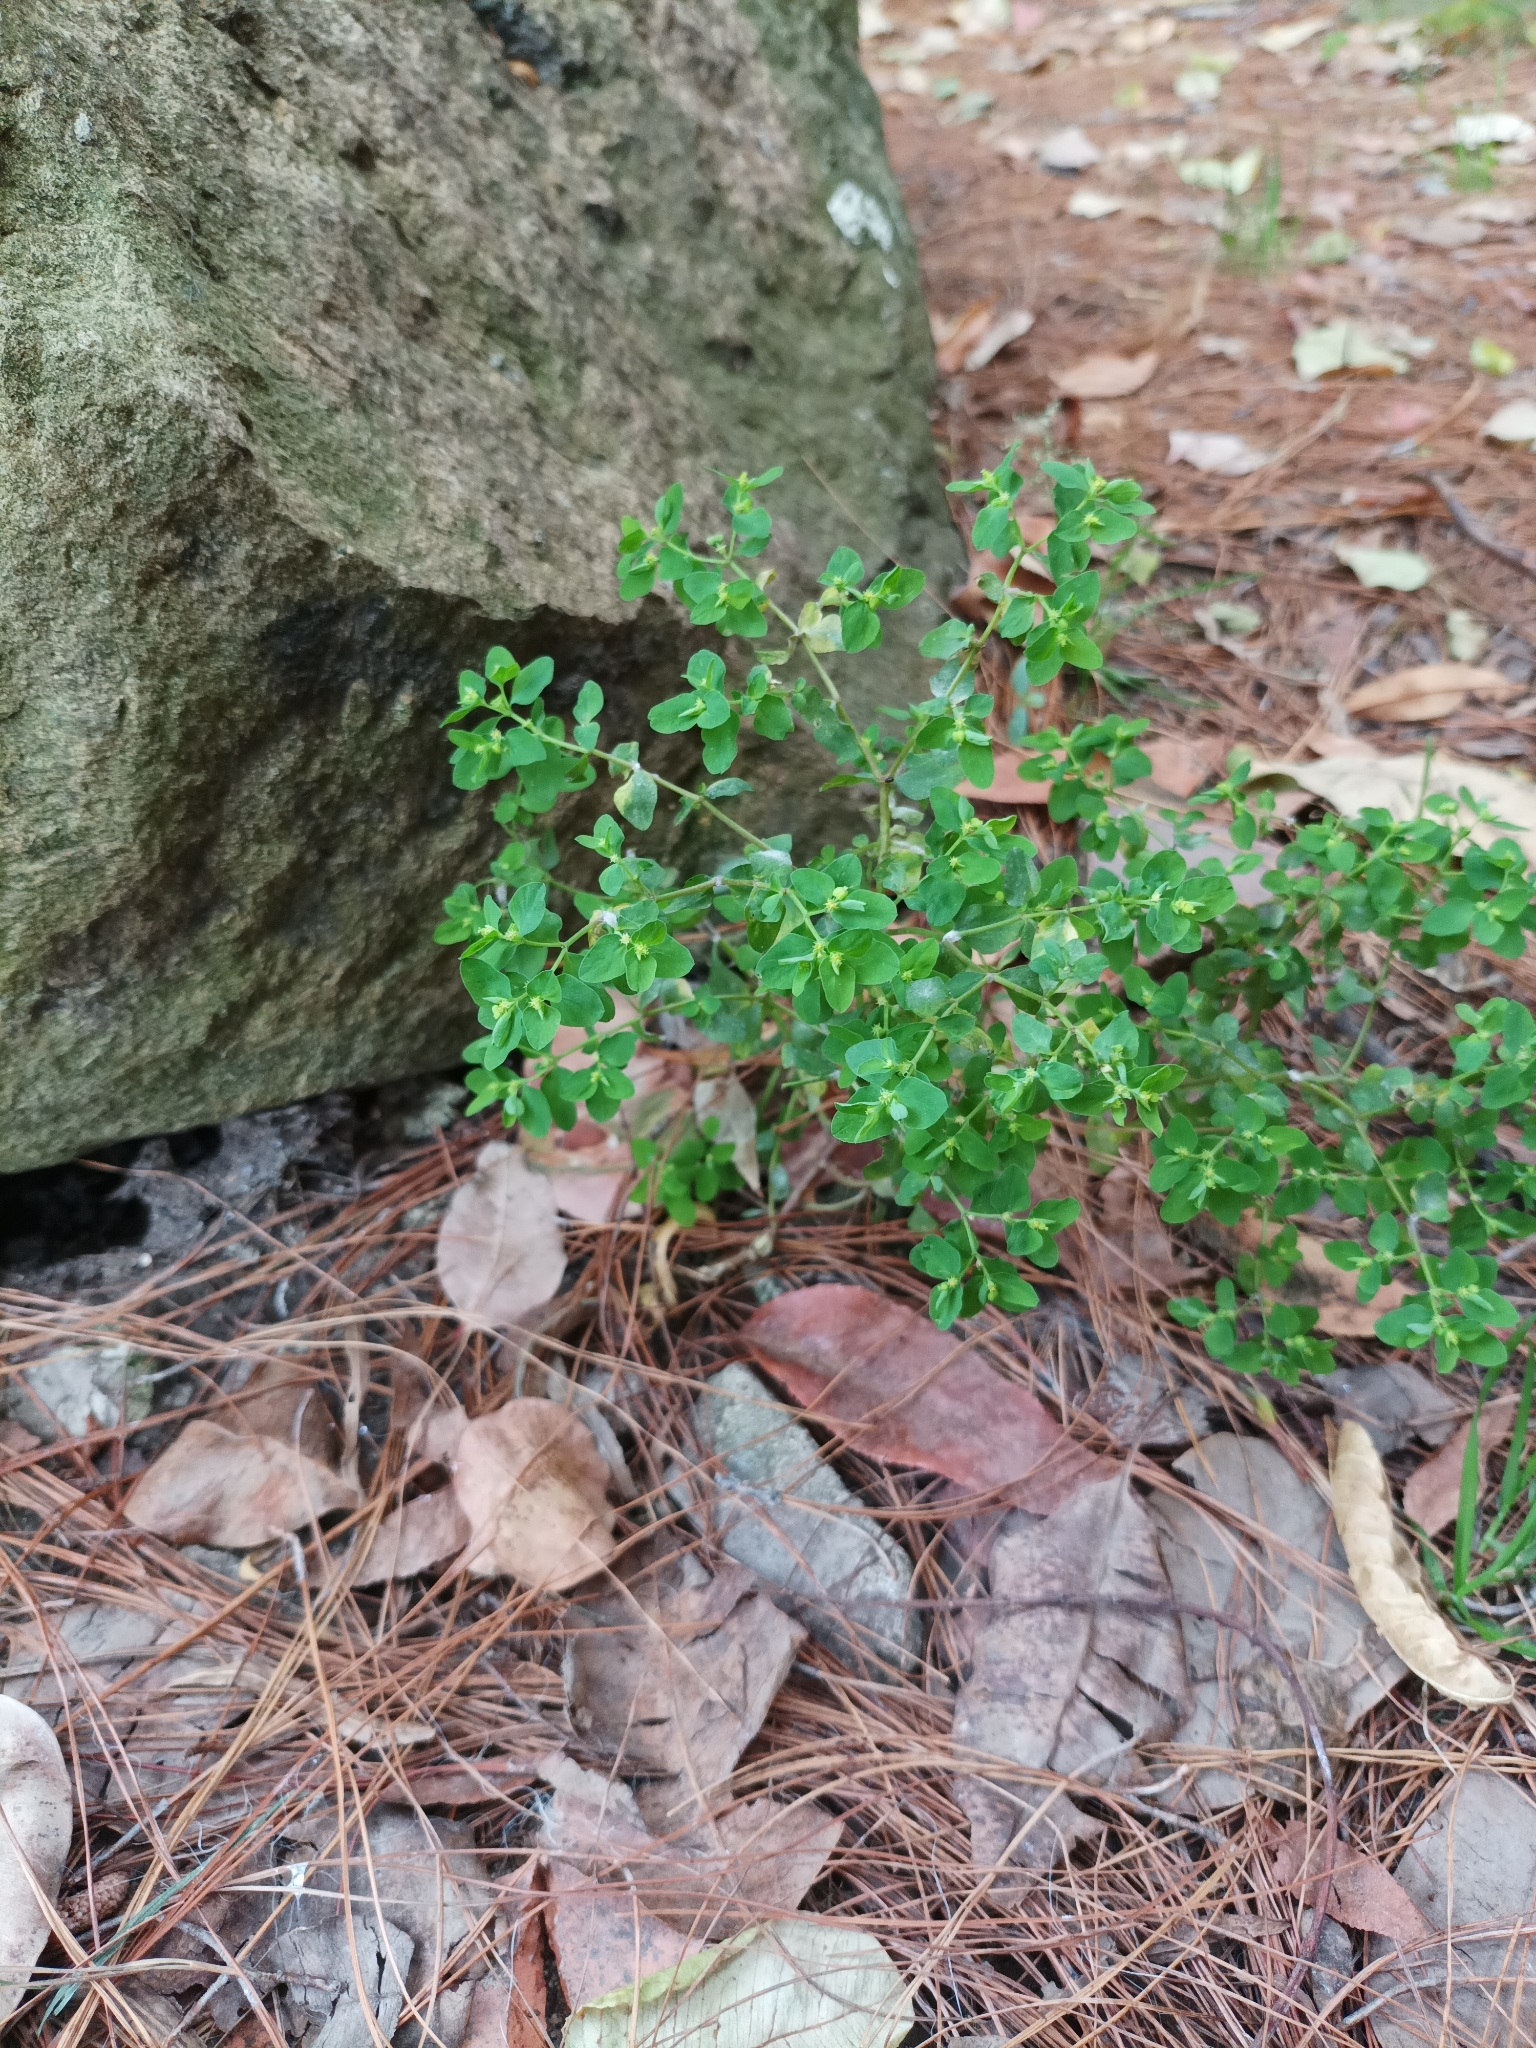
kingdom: Plantae
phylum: Tracheophyta
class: Magnoliopsida
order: Malpighiales
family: Euphorbiaceae
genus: Euphorbia
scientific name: Euphorbia peplus
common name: Petty spurge
